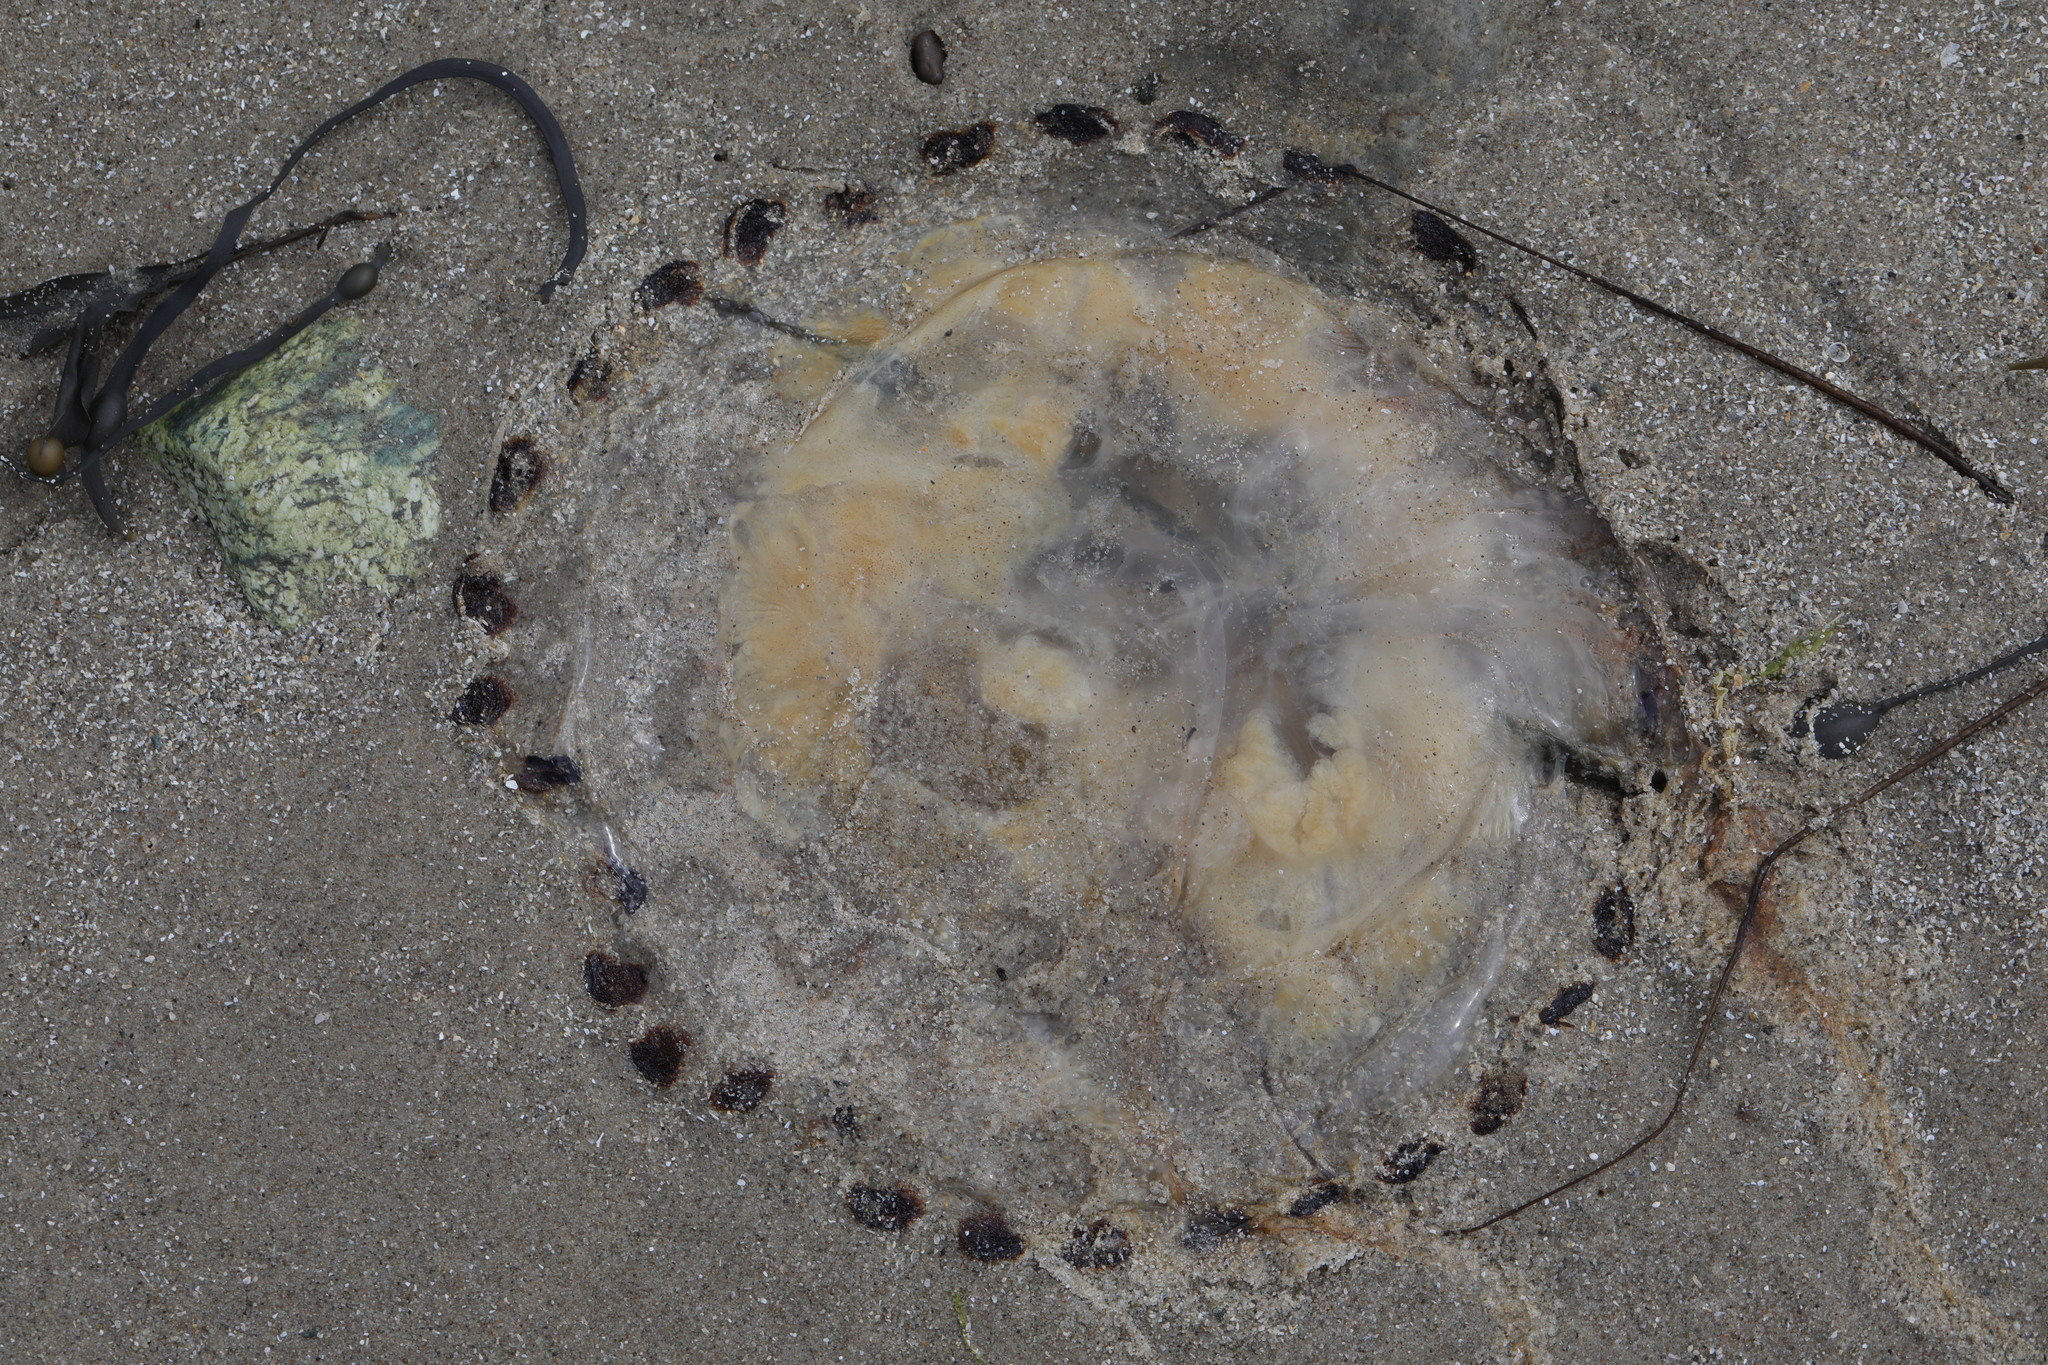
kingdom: Animalia
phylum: Cnidaria
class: Scyphozoa
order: Semaeostomeae
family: Pelagiidae
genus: Chrysaora
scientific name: Chrysaora hysoscella
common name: Compass jellyfish
